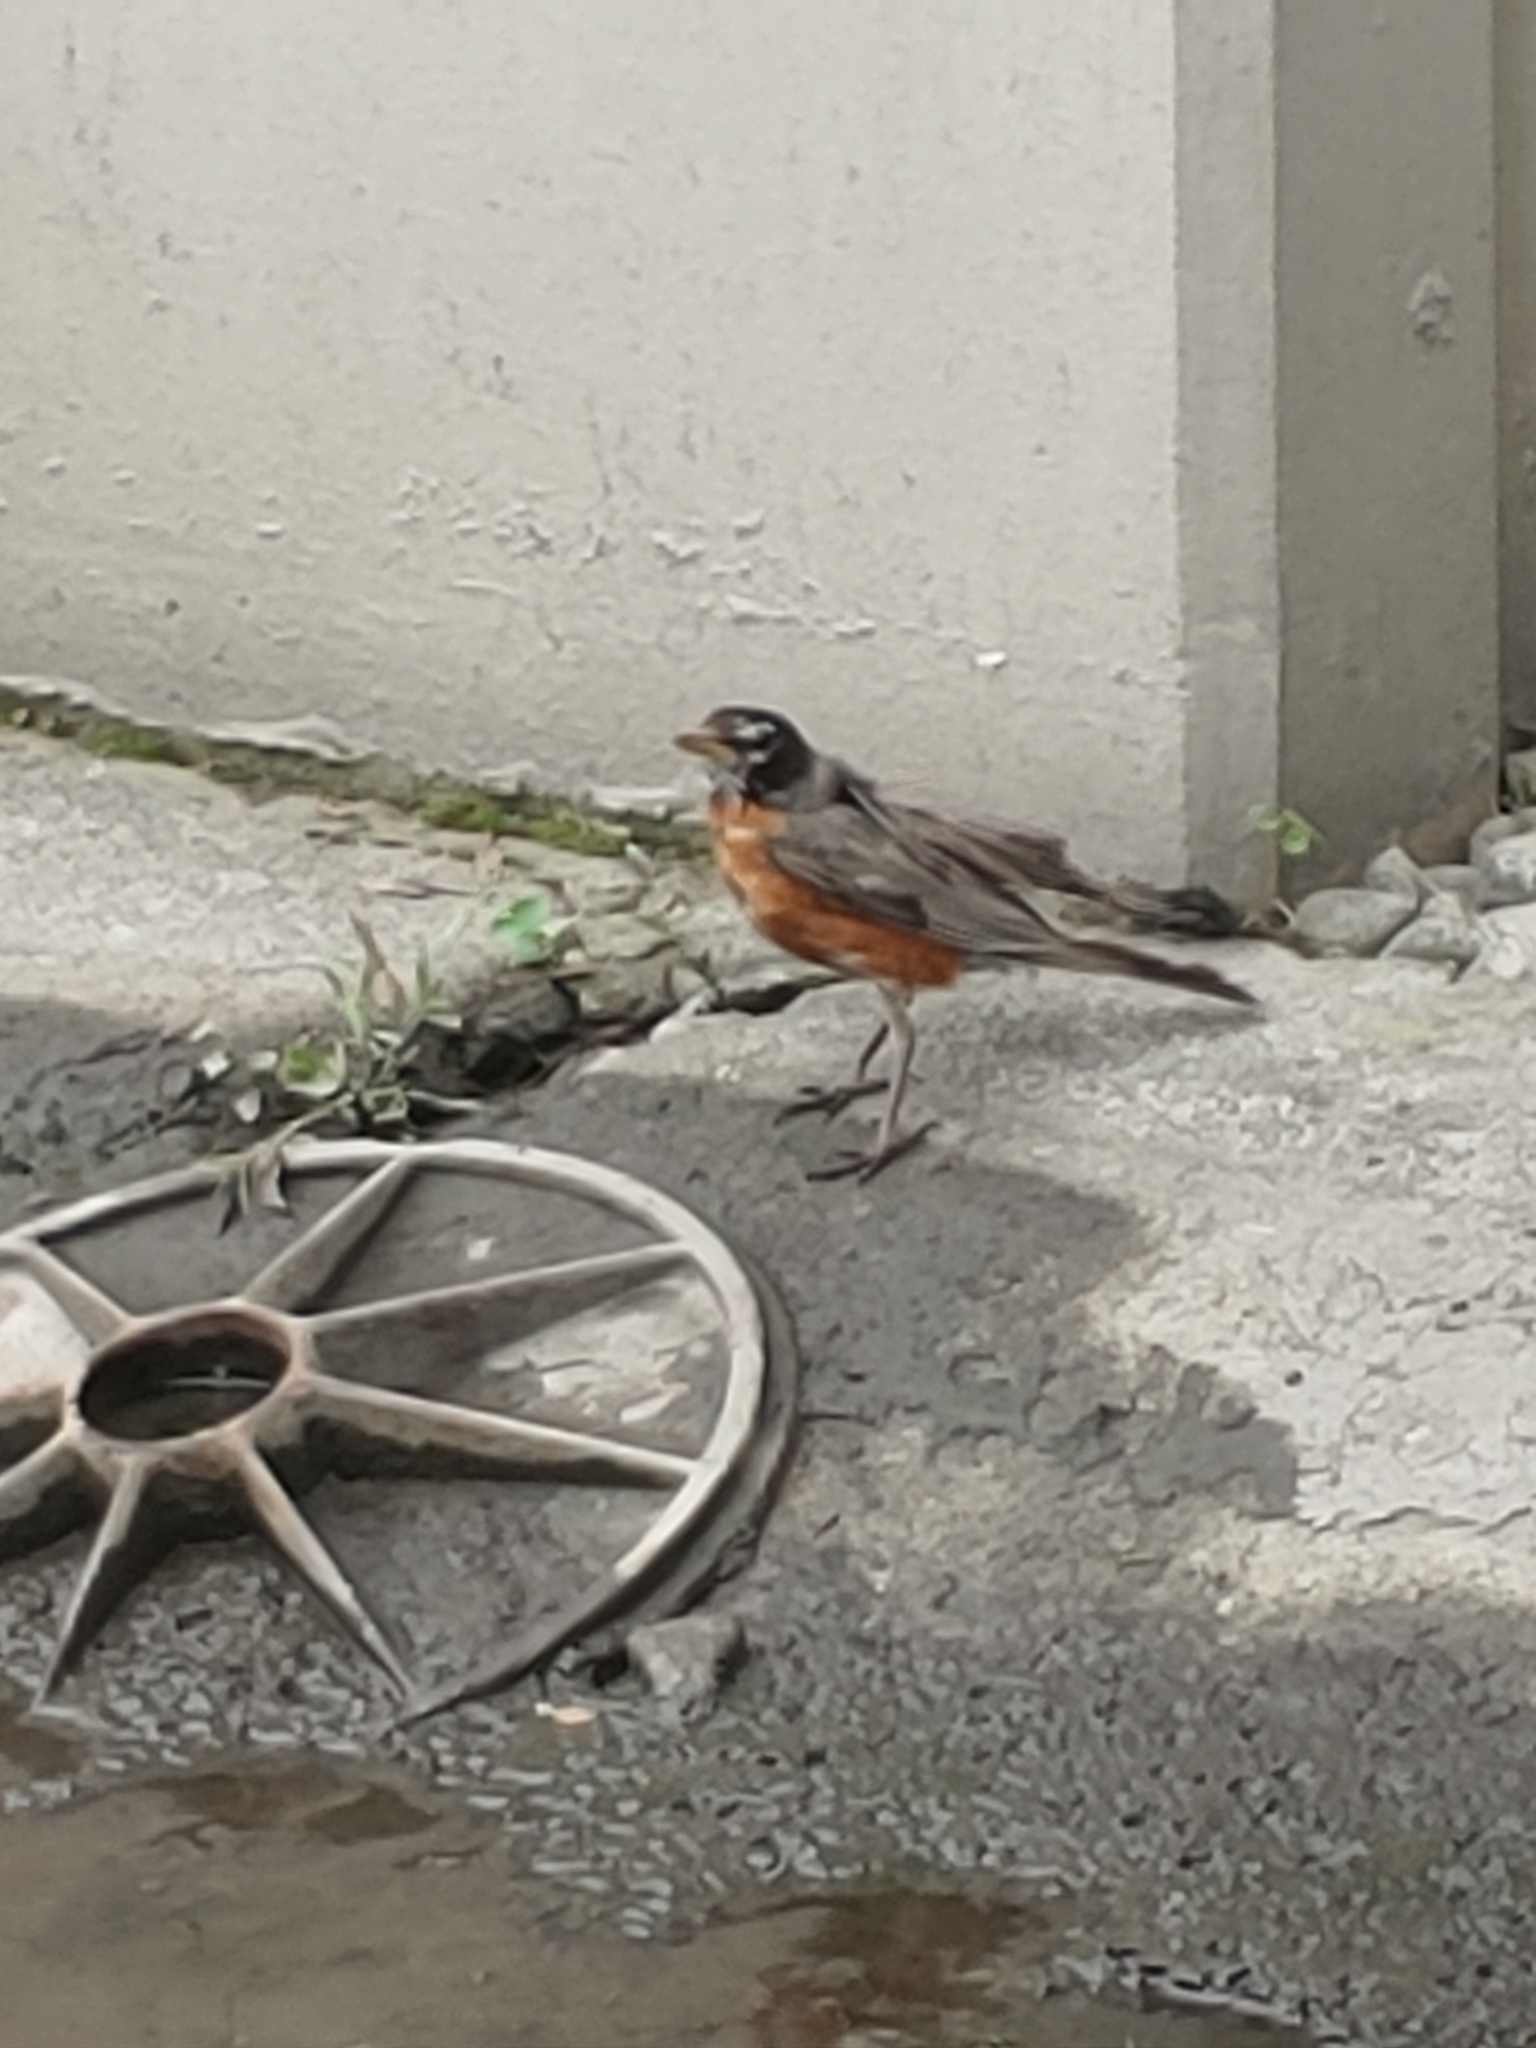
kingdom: Animalia
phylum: Chordata
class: Aves
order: Passeriformes
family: Turdidae
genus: Turdus
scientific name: Turdus migratorius
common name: American robin
